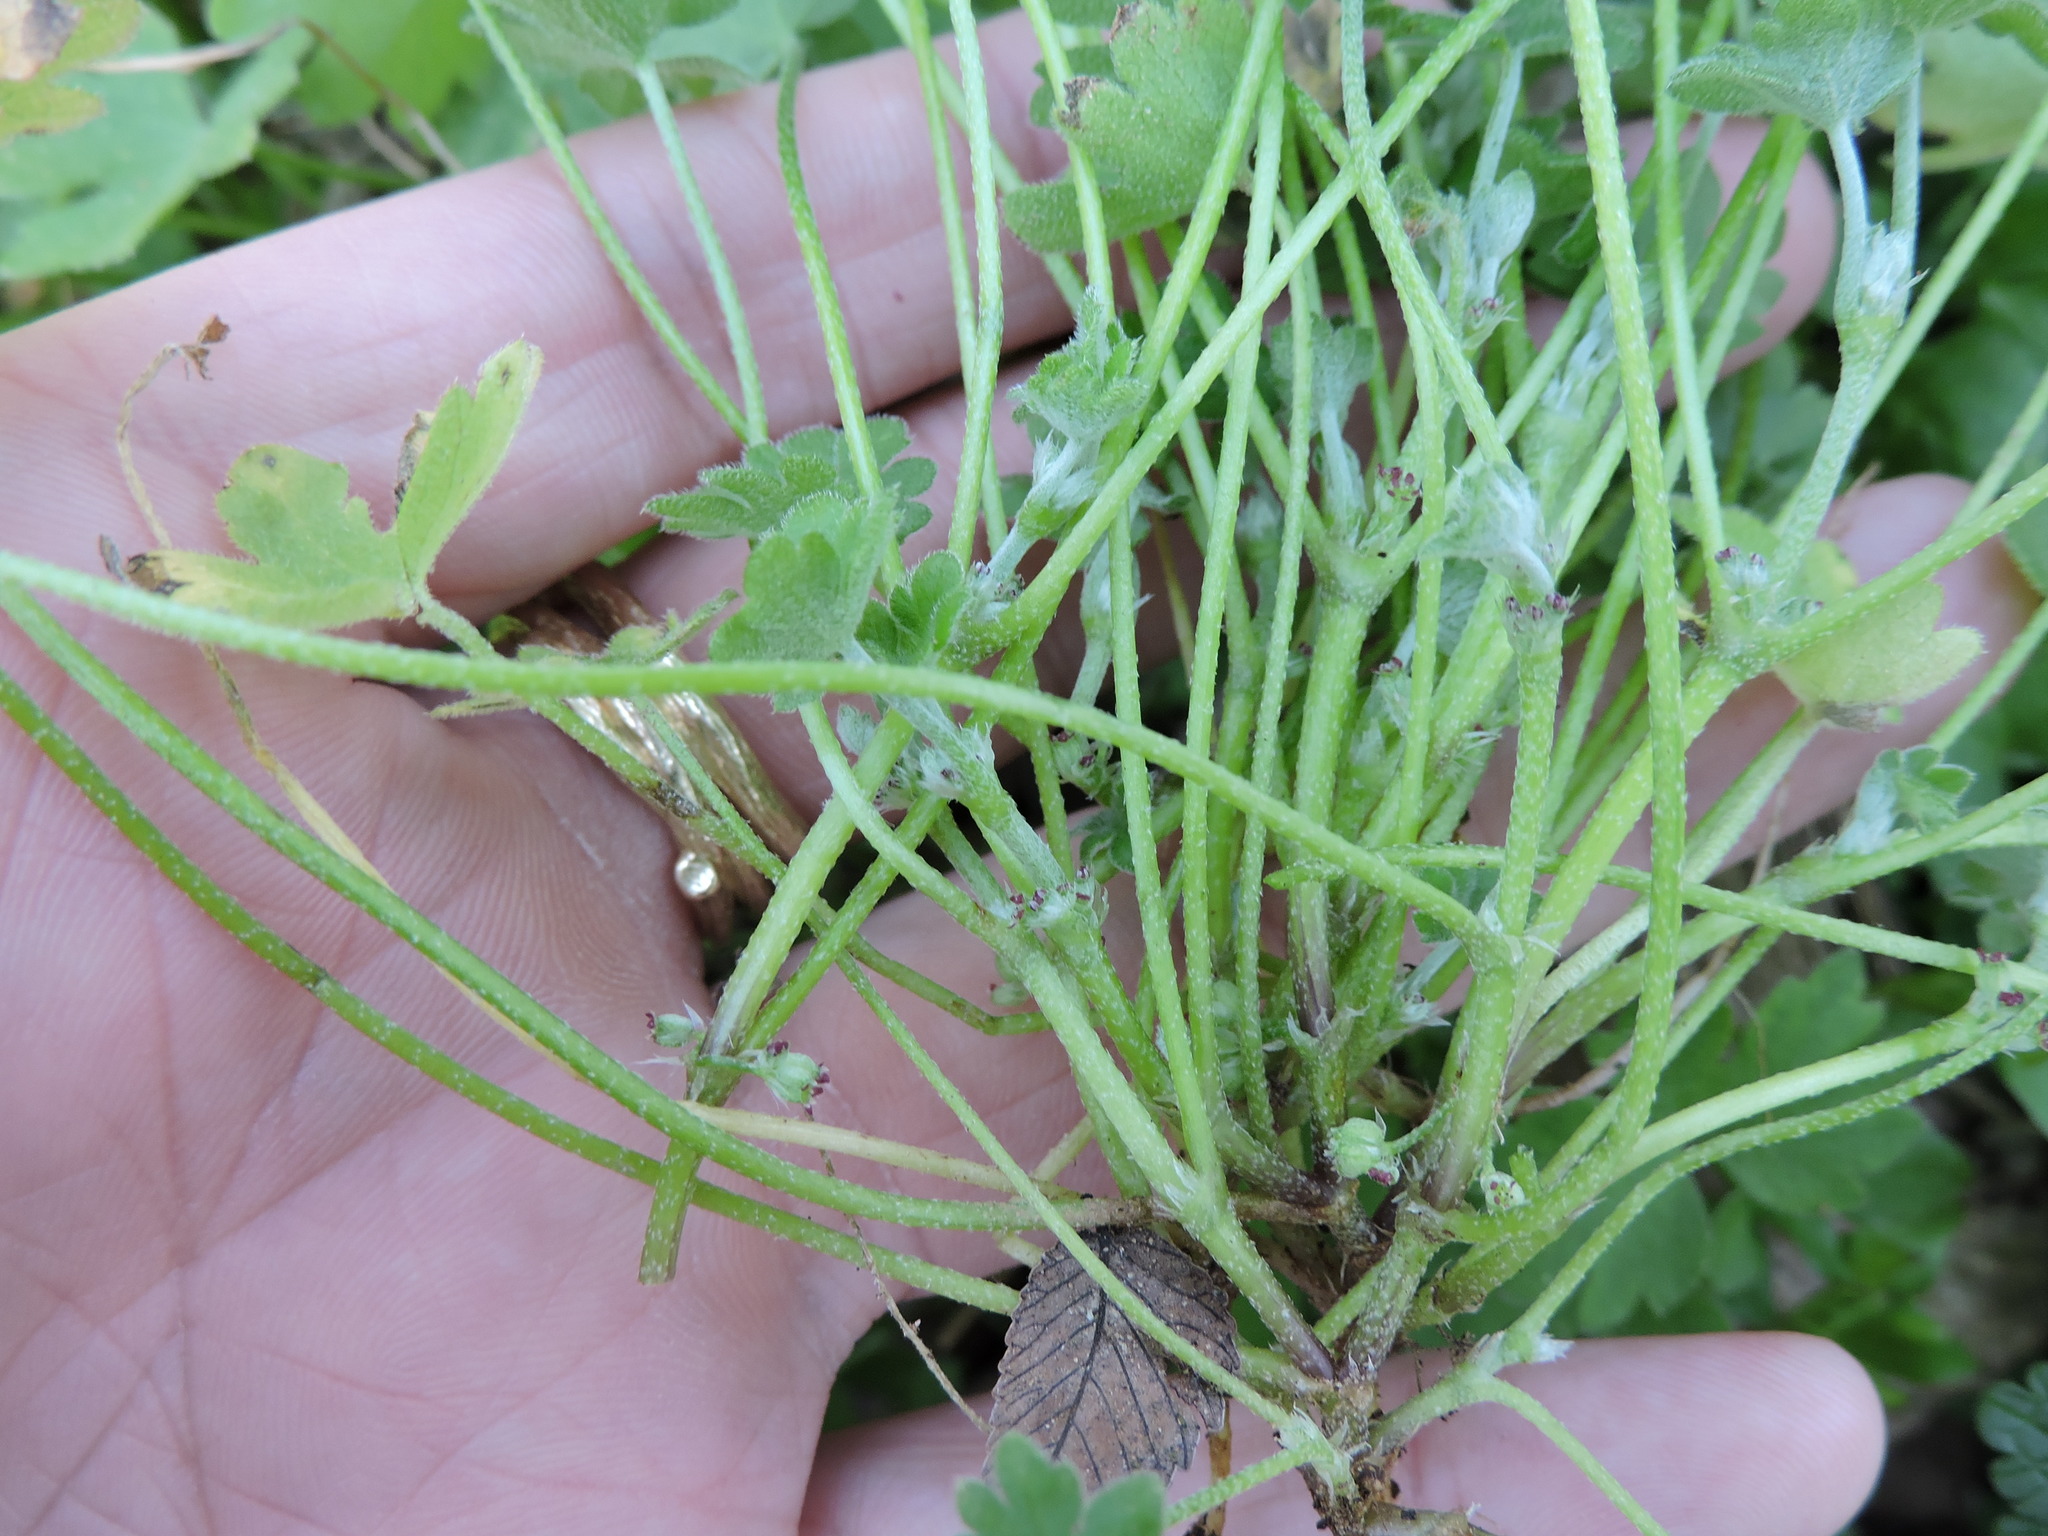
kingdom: Plantae
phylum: Tracheophyta
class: Magnoliopsida
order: Apiales
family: Apiaceae
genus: Bowlesia
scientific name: Bowlesia incana
